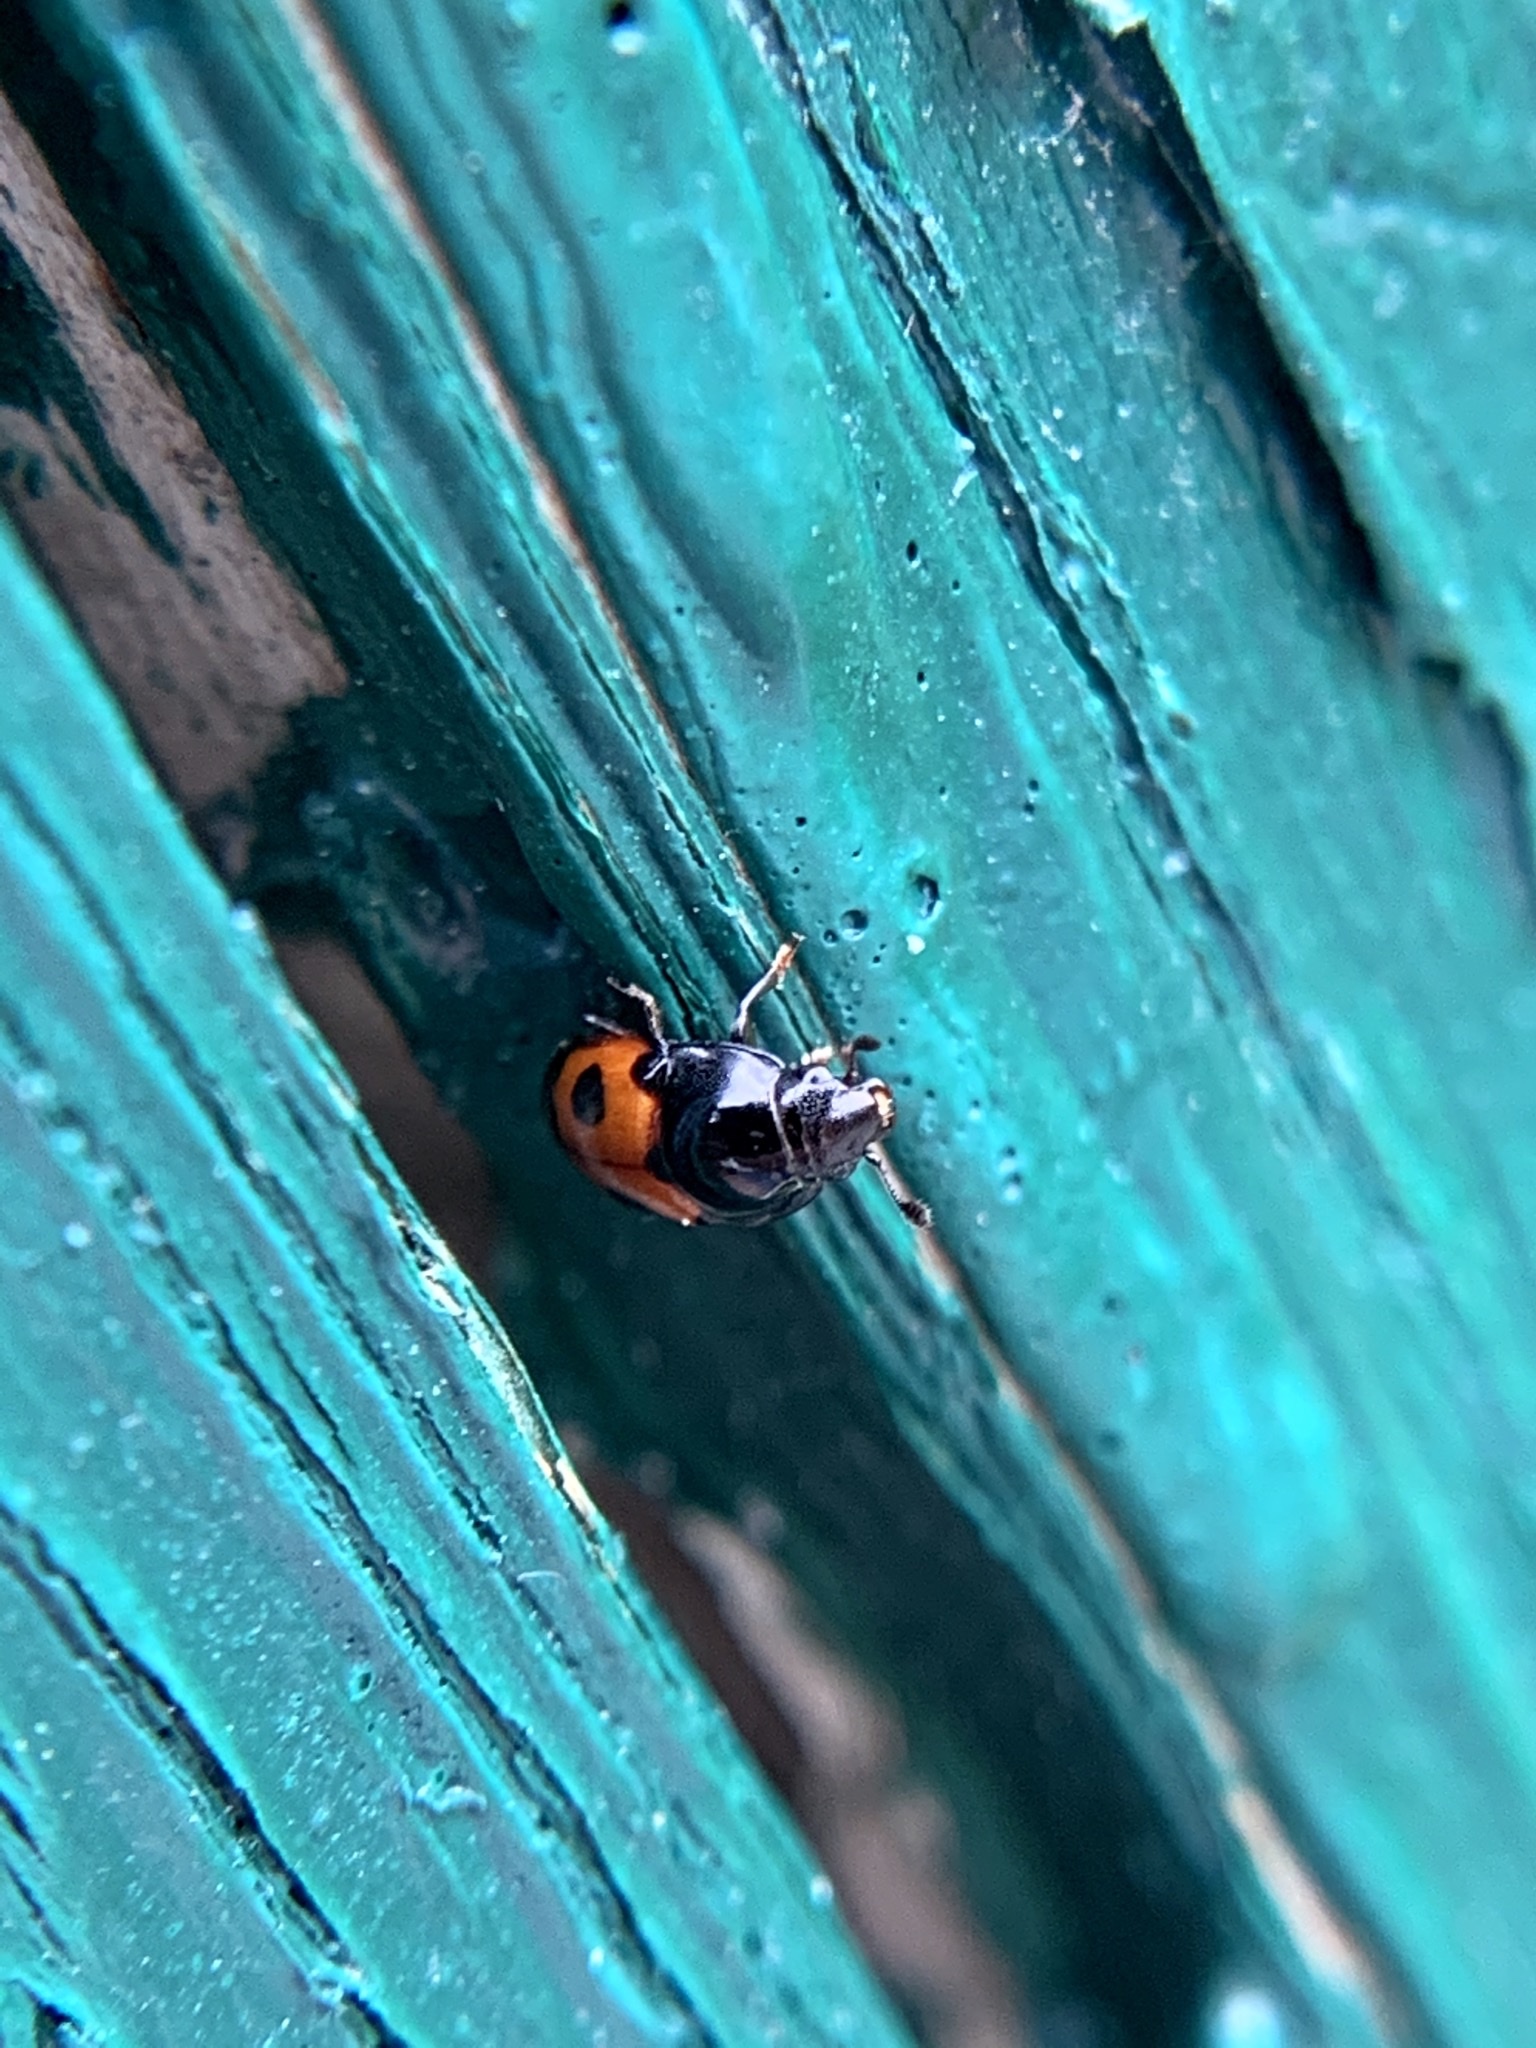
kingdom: Animalia
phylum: Arthropoda
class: Insecta
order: Coleoptera
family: Nitidulidae
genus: Glischrochilus
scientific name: Glischrochilus sanguinolentus
